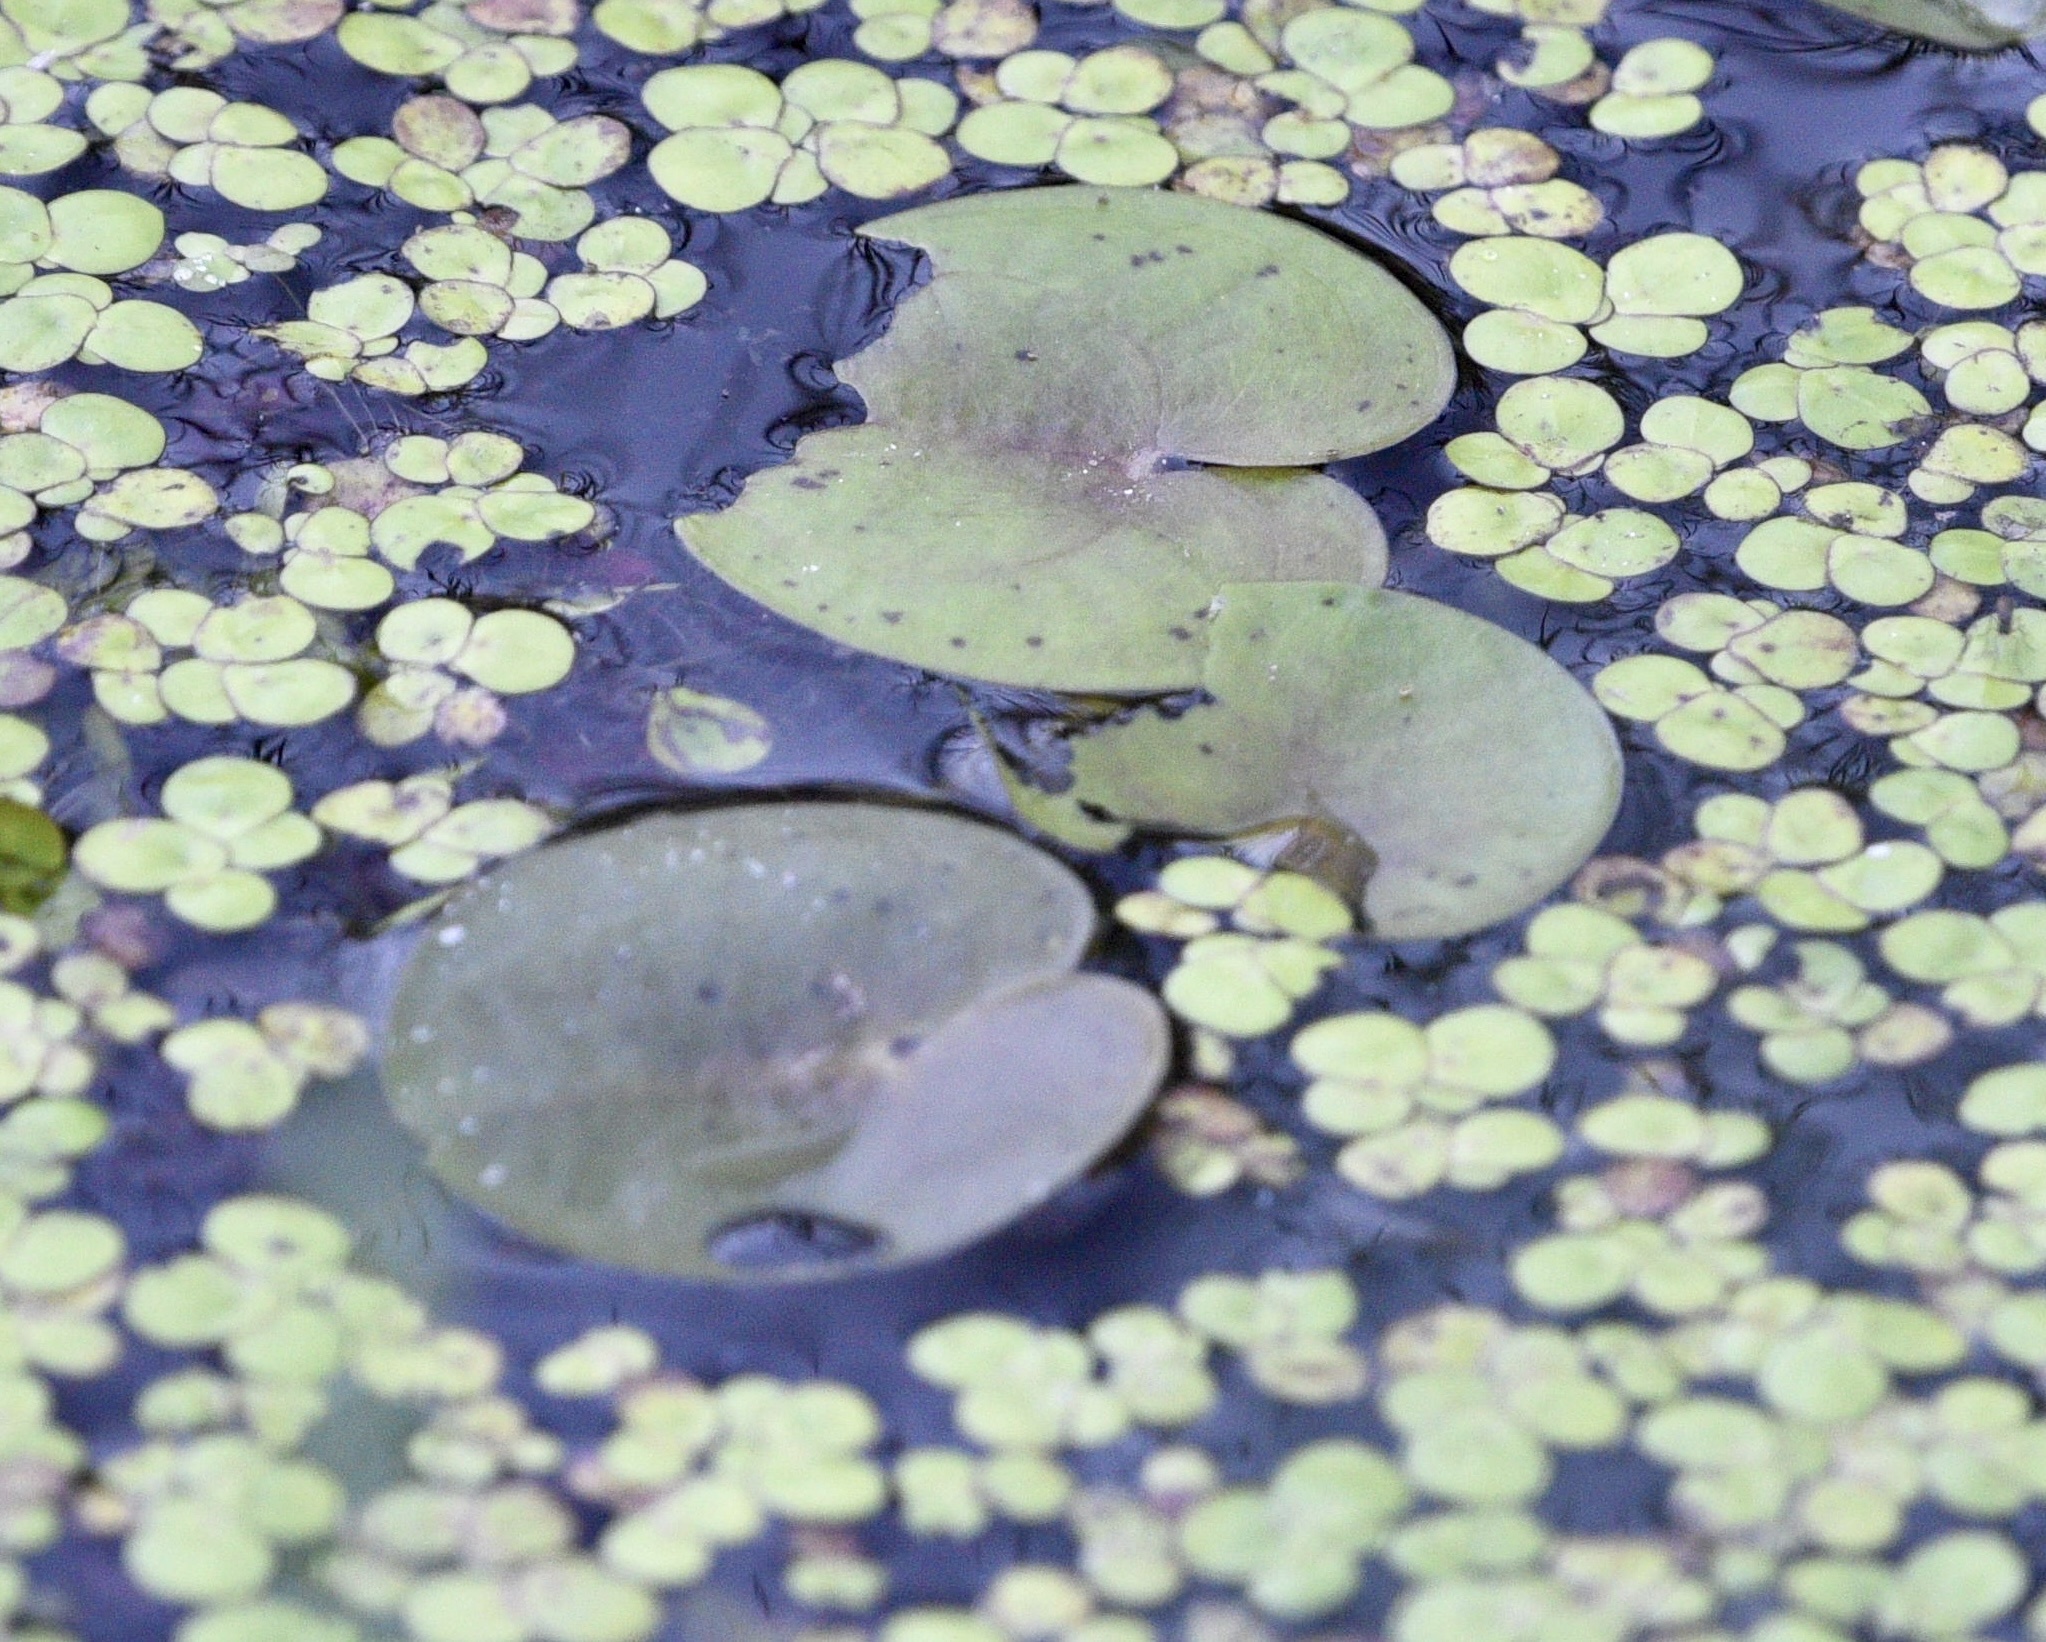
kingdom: Plantae
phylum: Tracheophyta
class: Liliopsida
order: Alismatales
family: Hydrocharitaceae
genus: Hydrocharis
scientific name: Hydrocharis morsus-ranae
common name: Frogbit
